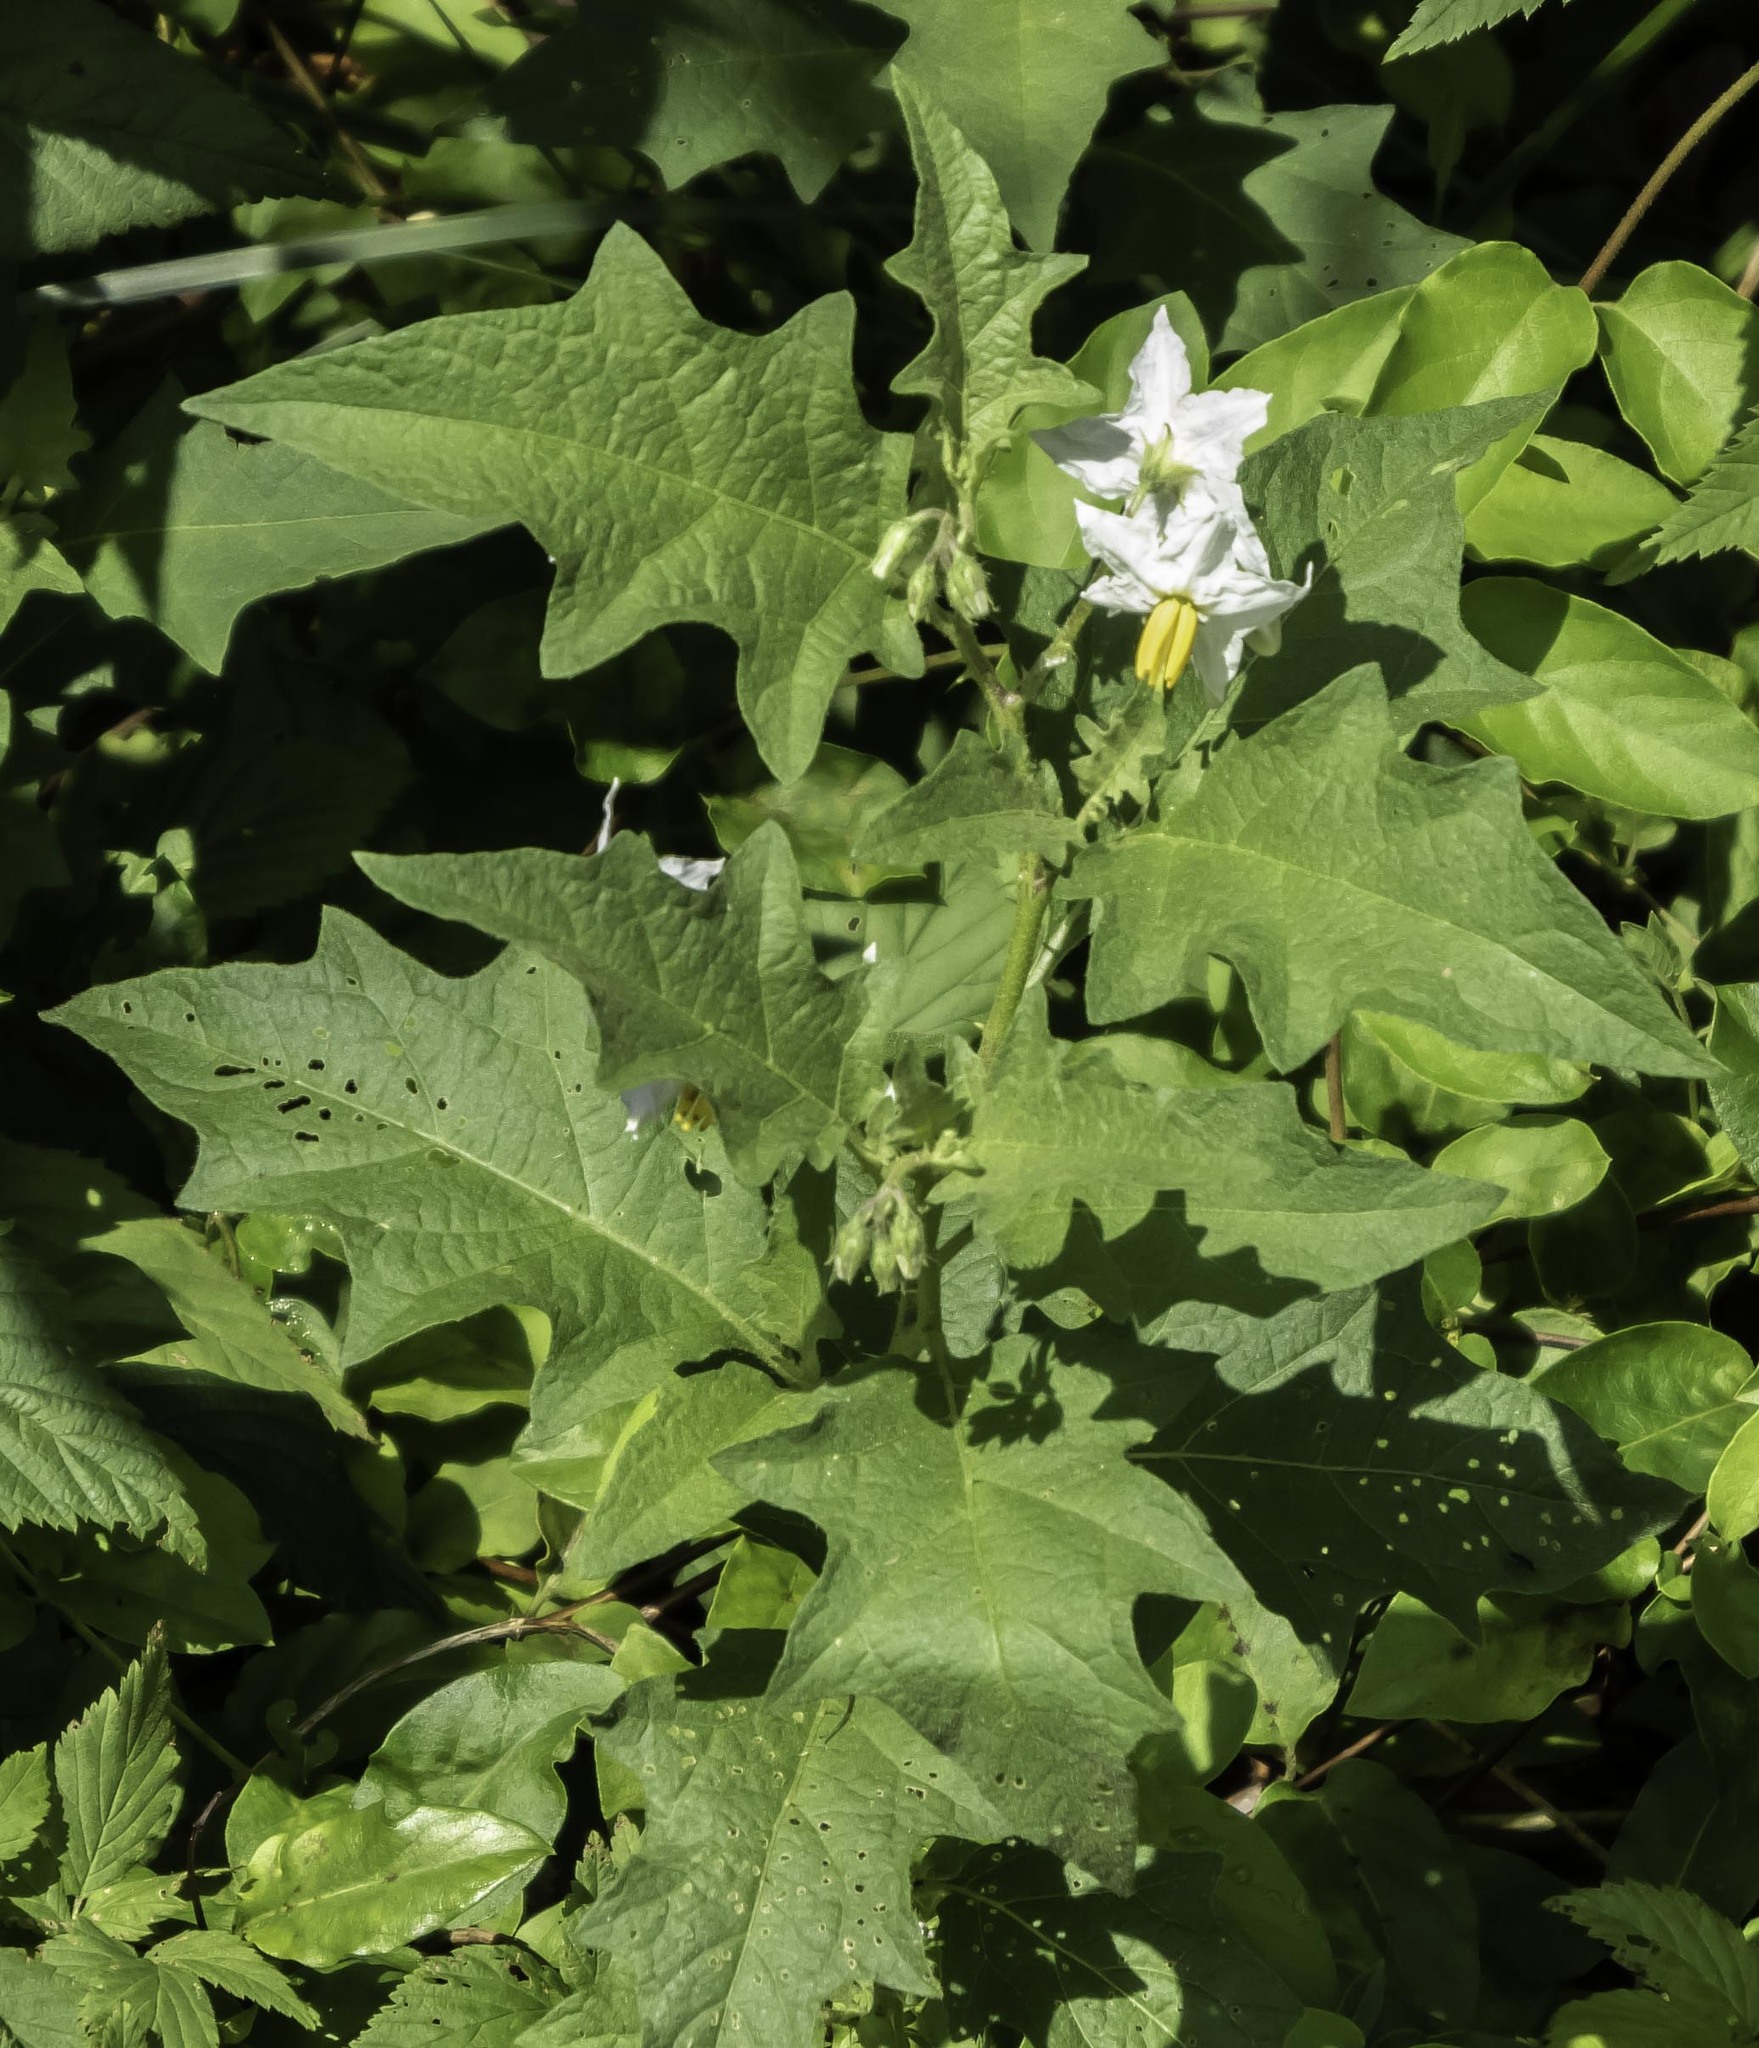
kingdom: Plantae
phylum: Tracheophyta
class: Magnoliopsida
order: Solanales
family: Solanaceae
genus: Solanum
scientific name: Solanum carolinense
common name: Horse-nettle
